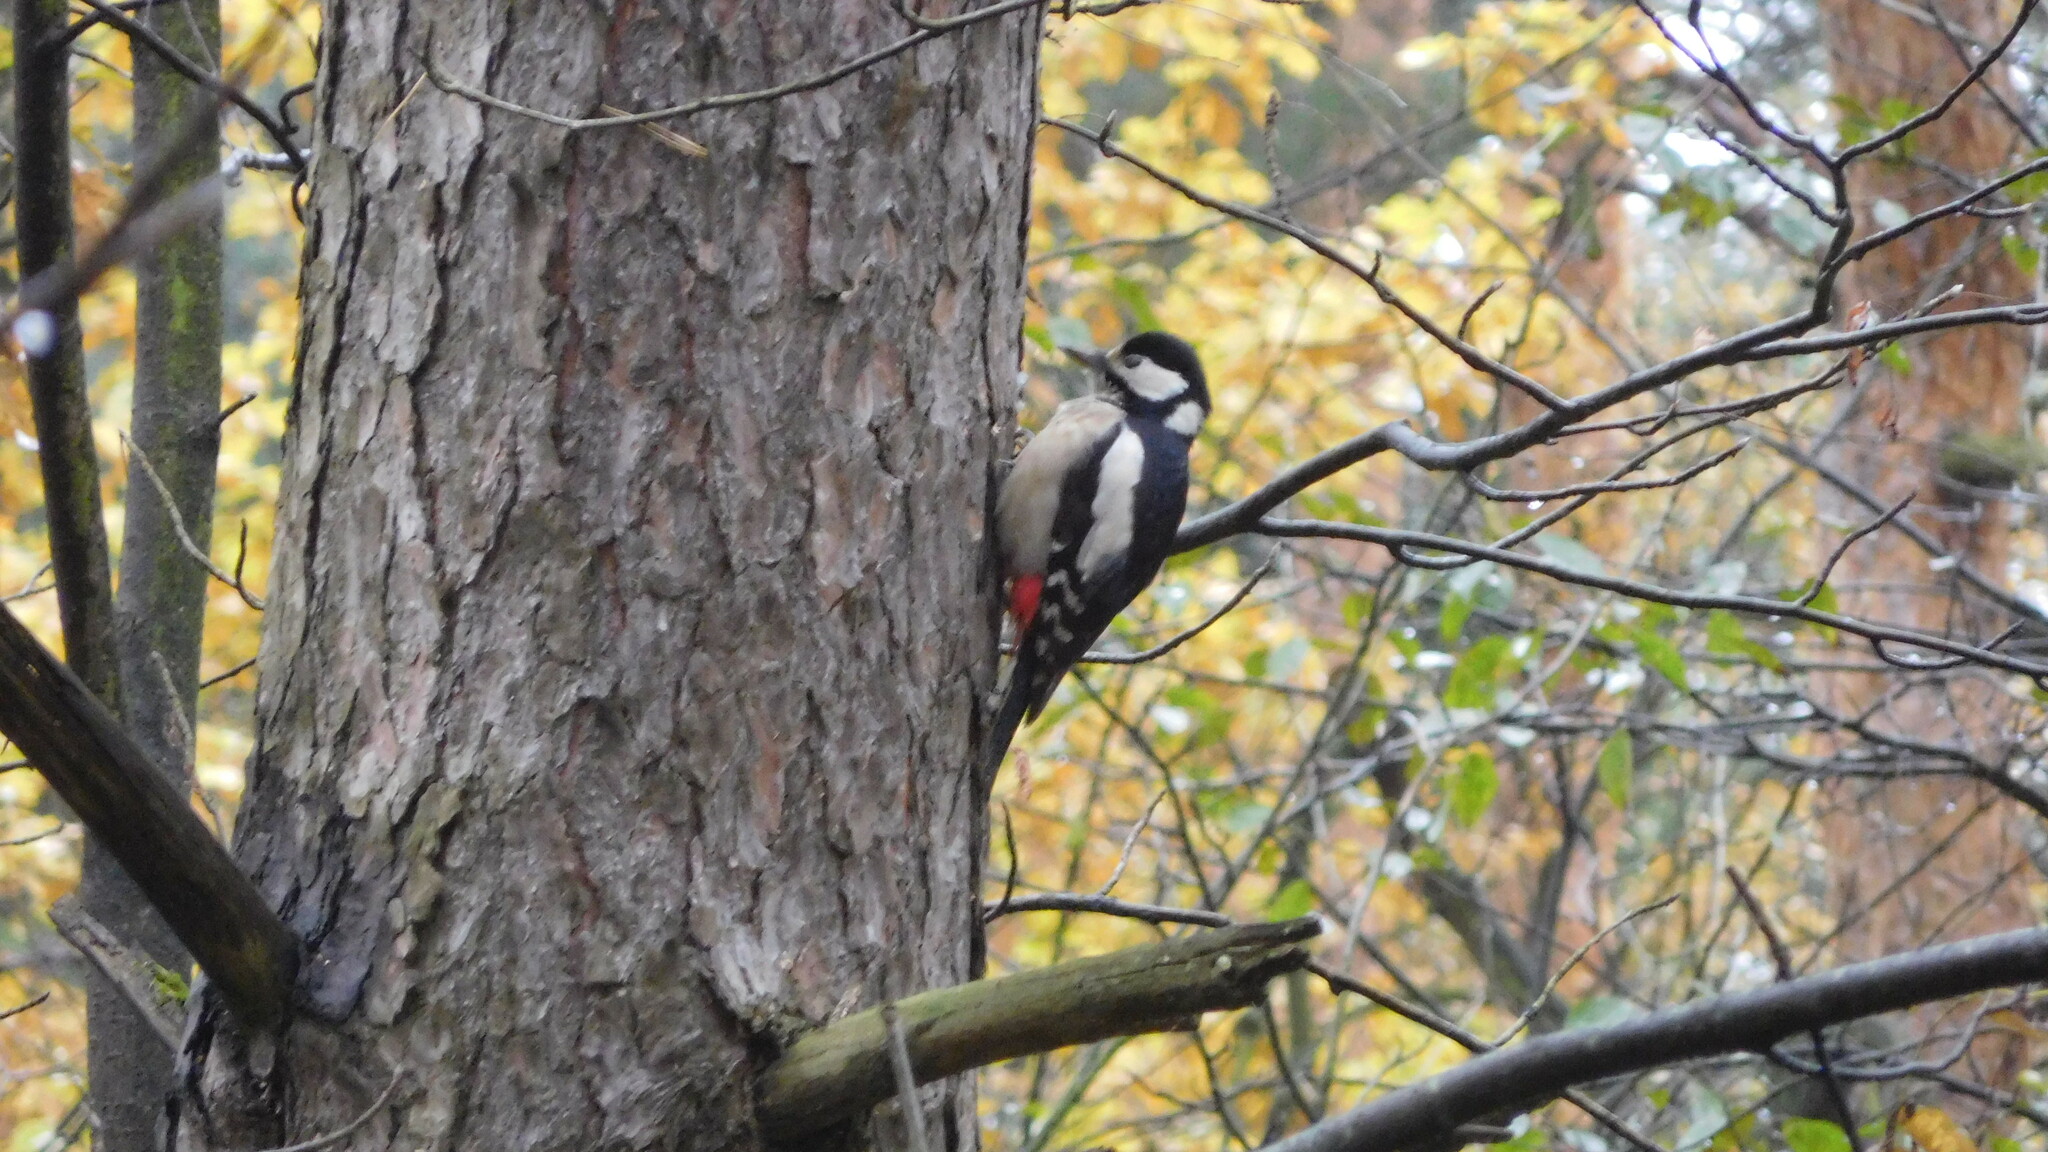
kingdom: Animalia
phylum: Chordata
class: Aves
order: Piciformes
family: Picidae
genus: Dendrocopos
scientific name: Dendrocopos major
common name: Great spotted woodpecker
